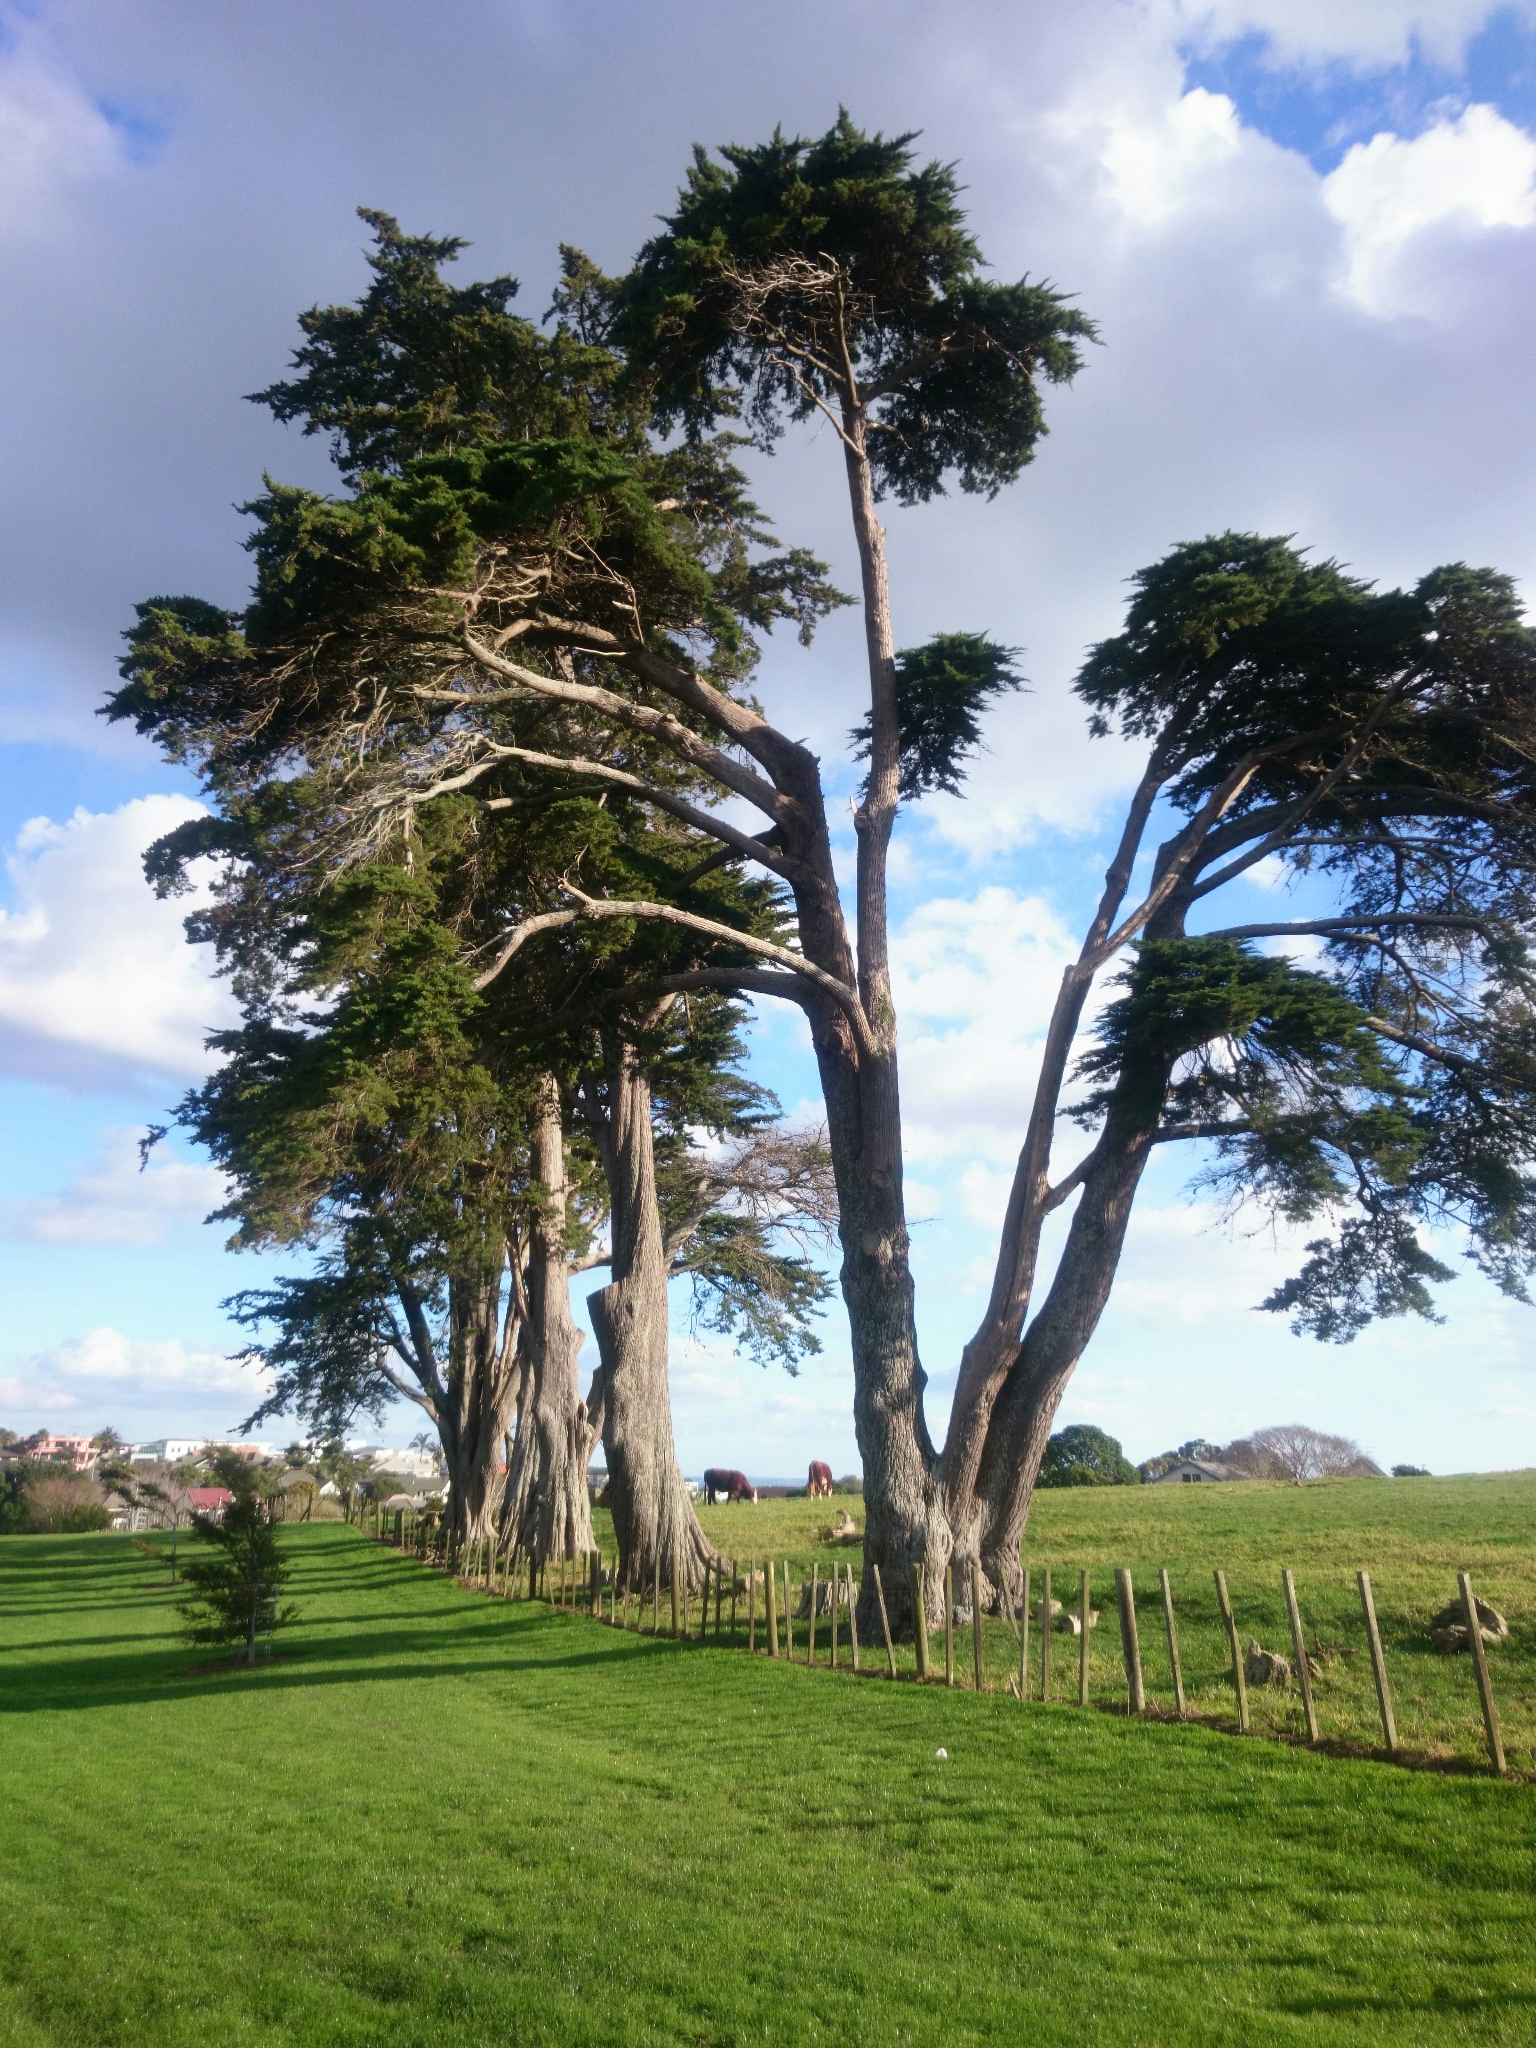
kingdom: Plantae
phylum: Tracheophyta
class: Pinopsida
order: Pinales
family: Cupressaceae
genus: Cupressus
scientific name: Cupressus macrocarpa
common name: Monterey cypress
